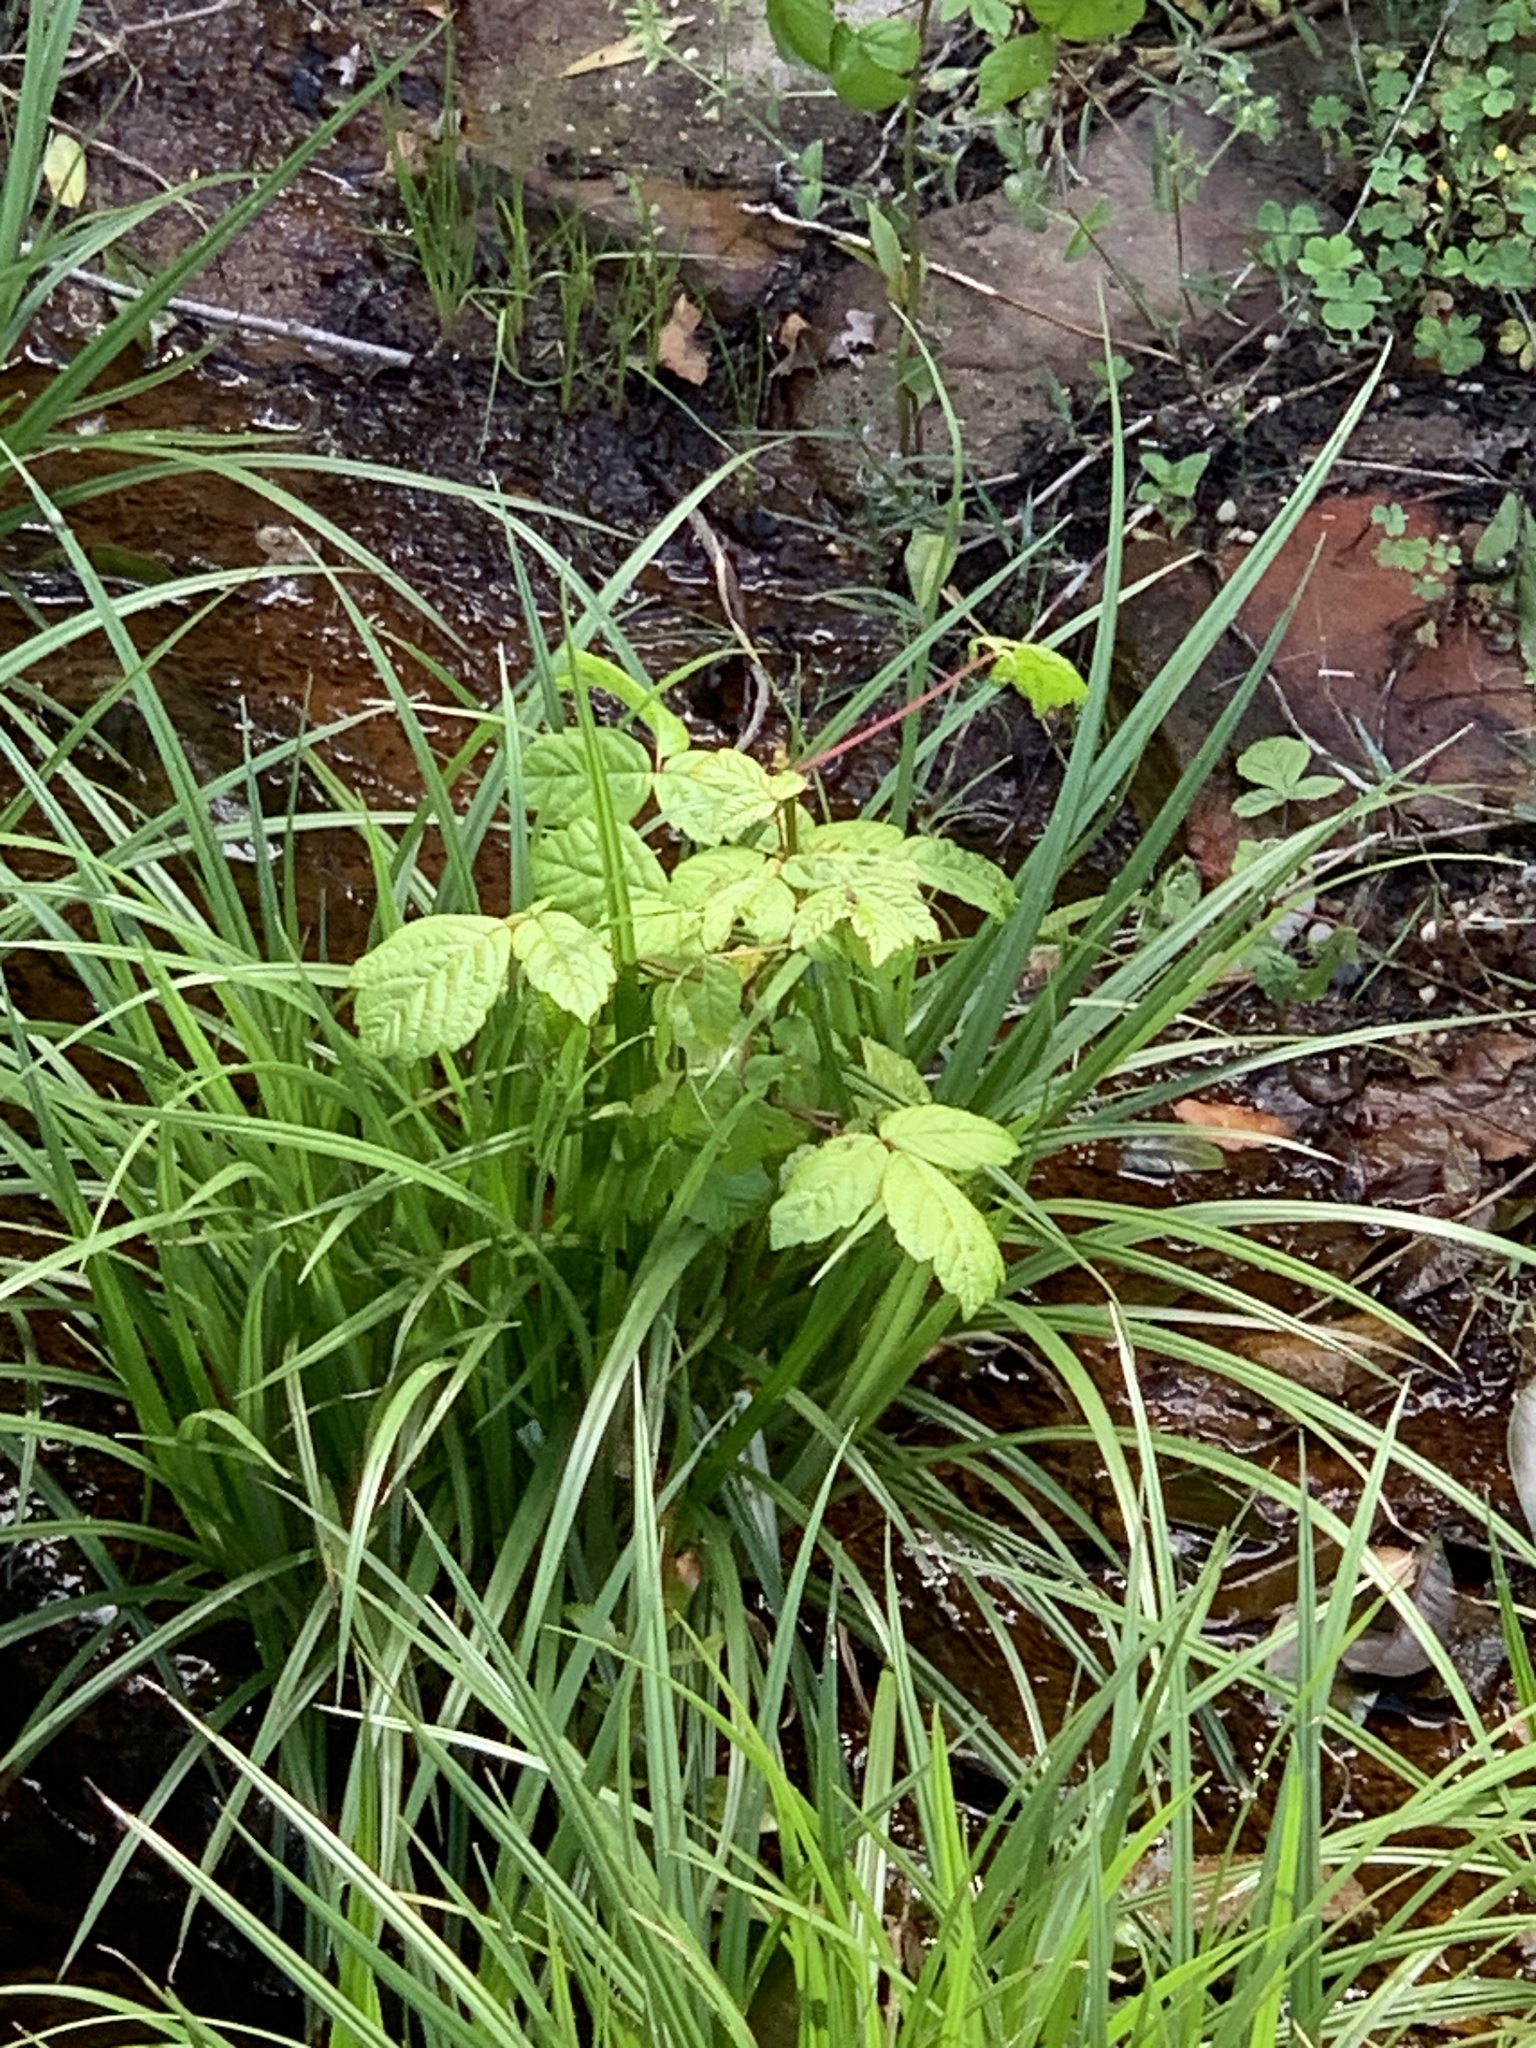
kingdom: Plantae
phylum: Tracheophyta
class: Magnoliopsida
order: Sapindales
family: Sapindaceae
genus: Acer
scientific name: Acer negundo
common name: Ashleaf maple
